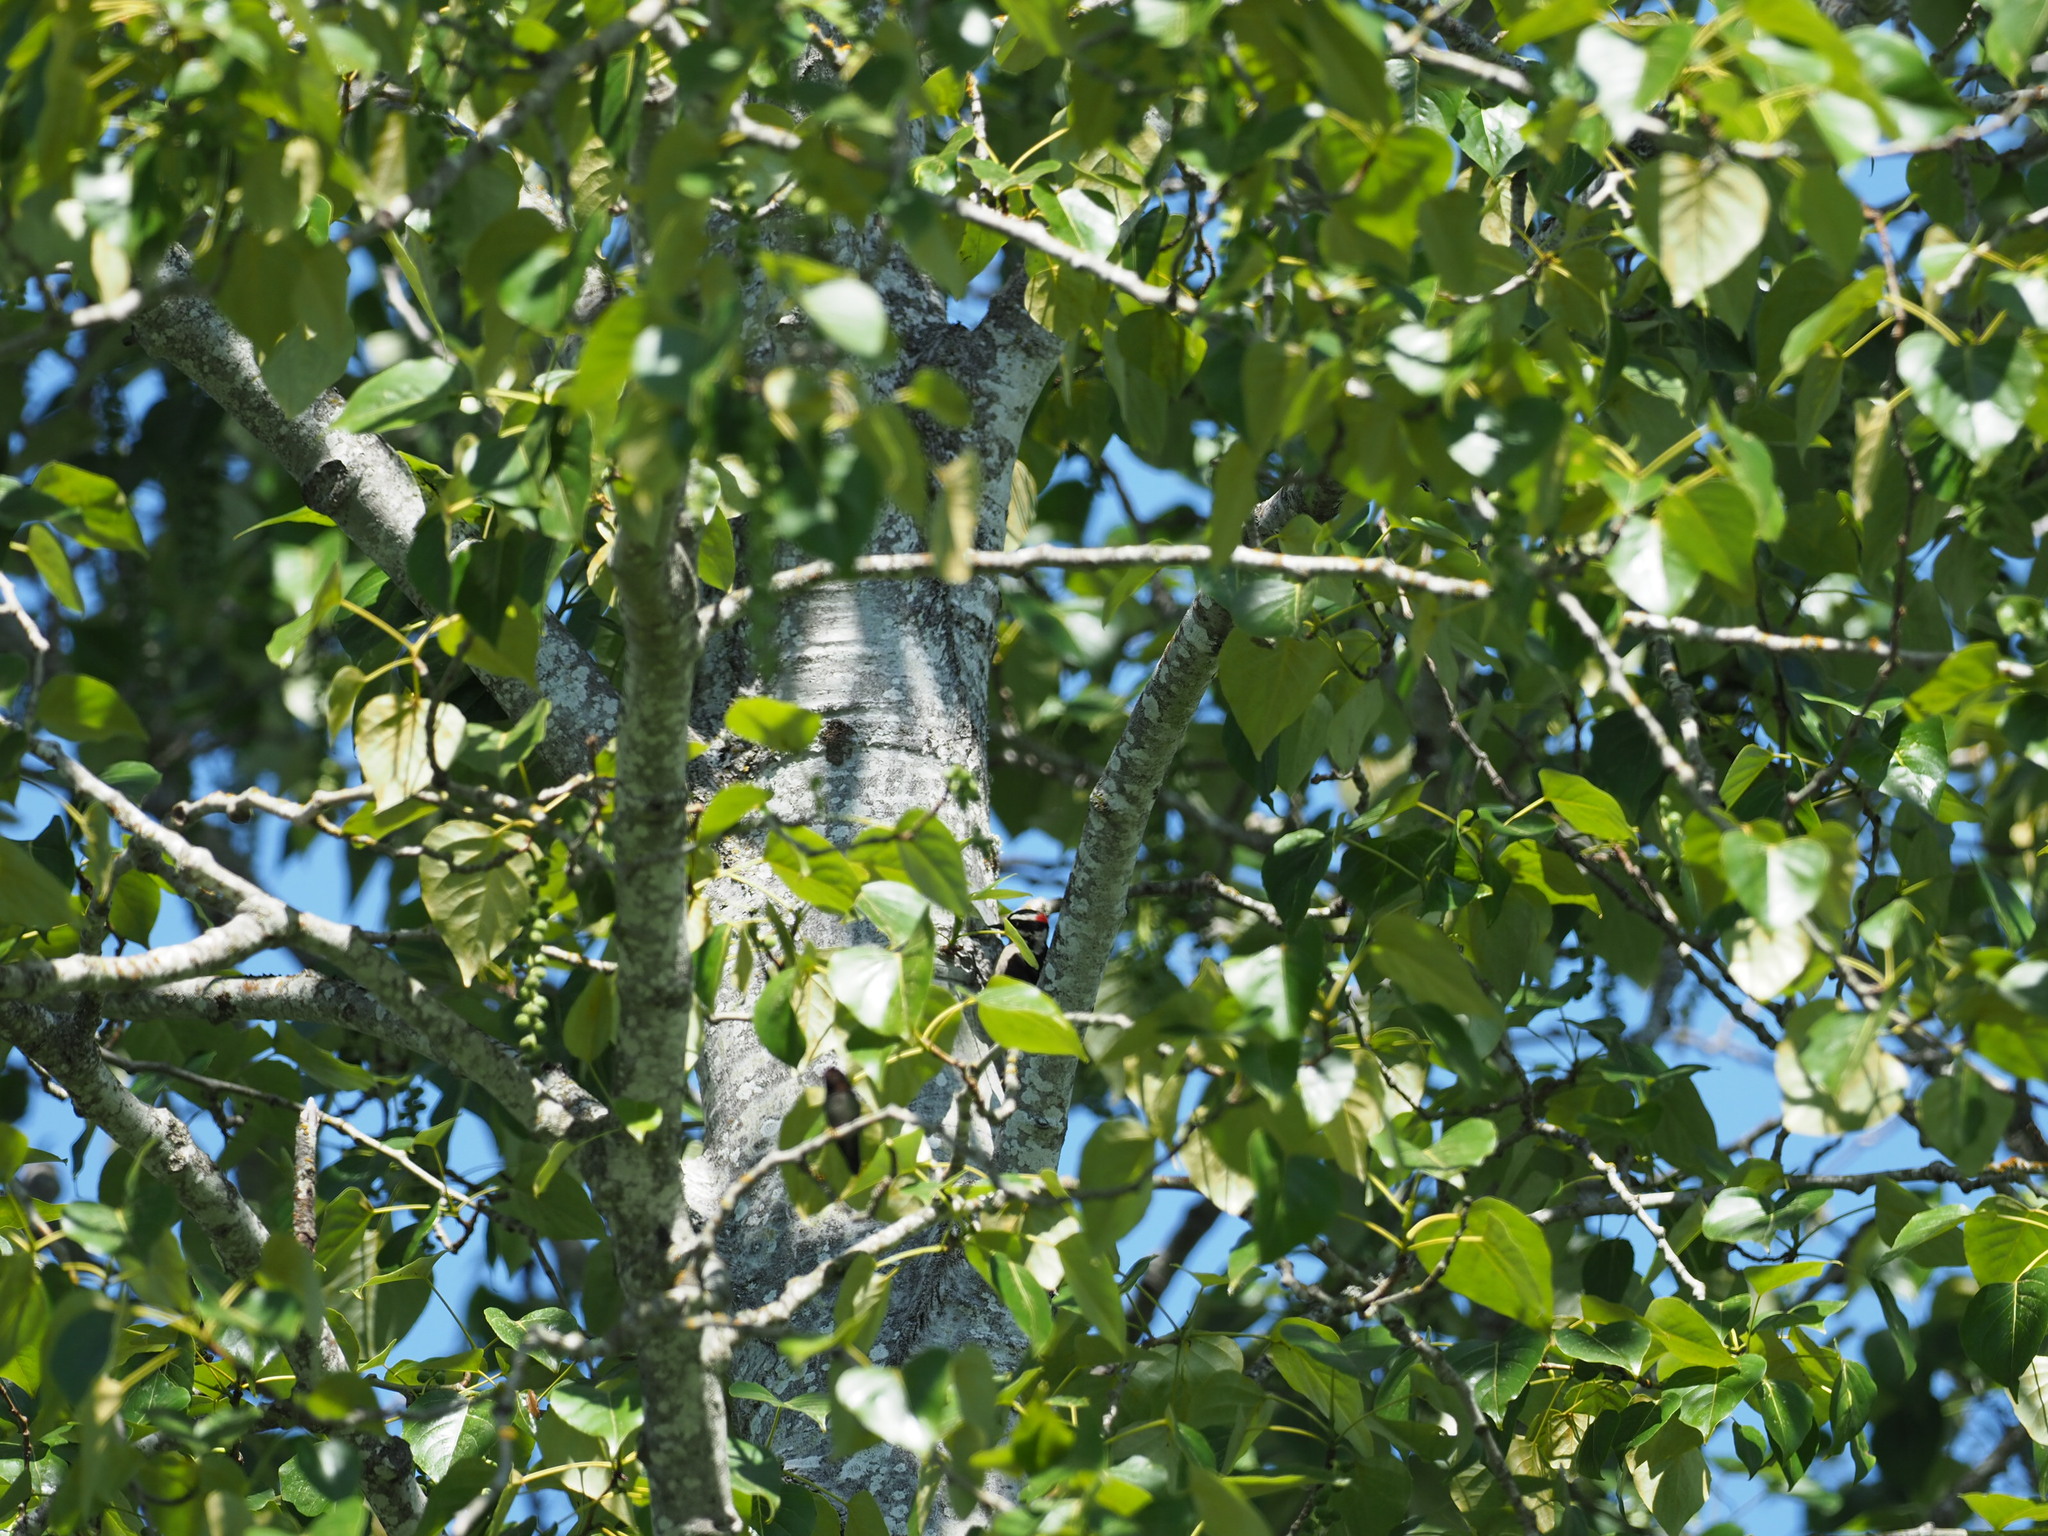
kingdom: Animalia
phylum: Chordata
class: Aves
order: Piciformes
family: Picidae
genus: Dryobates
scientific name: Dryobates pubescens
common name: Downy woodpecker
